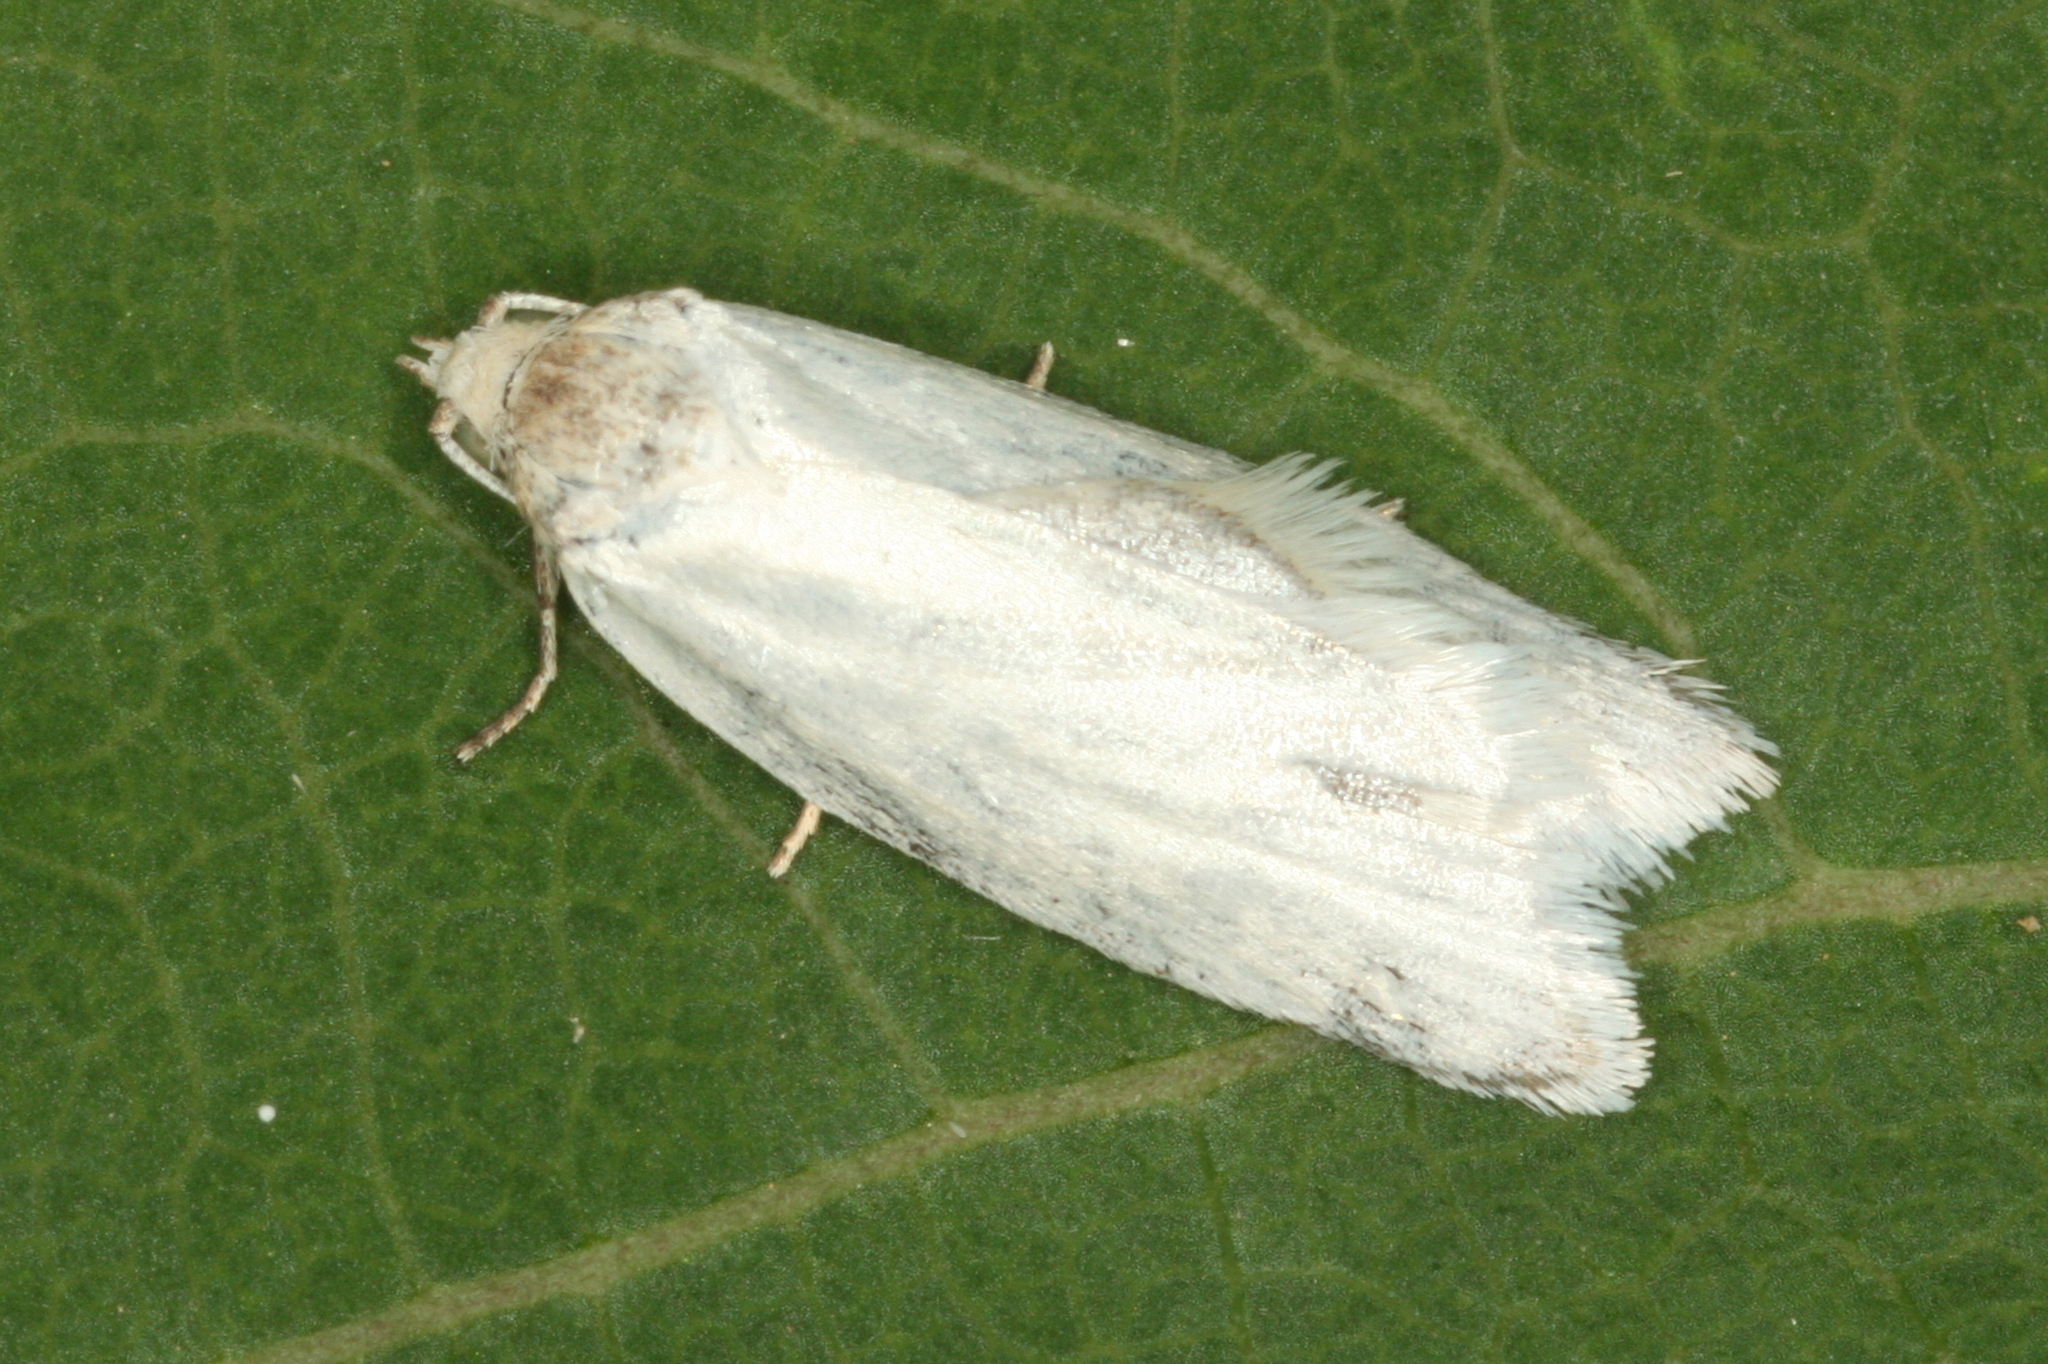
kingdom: Animalia
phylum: Arthropoda
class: Insecta
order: Lepidoptera
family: Tortricidae
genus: Eana
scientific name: Eana argentana
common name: Silver shade
